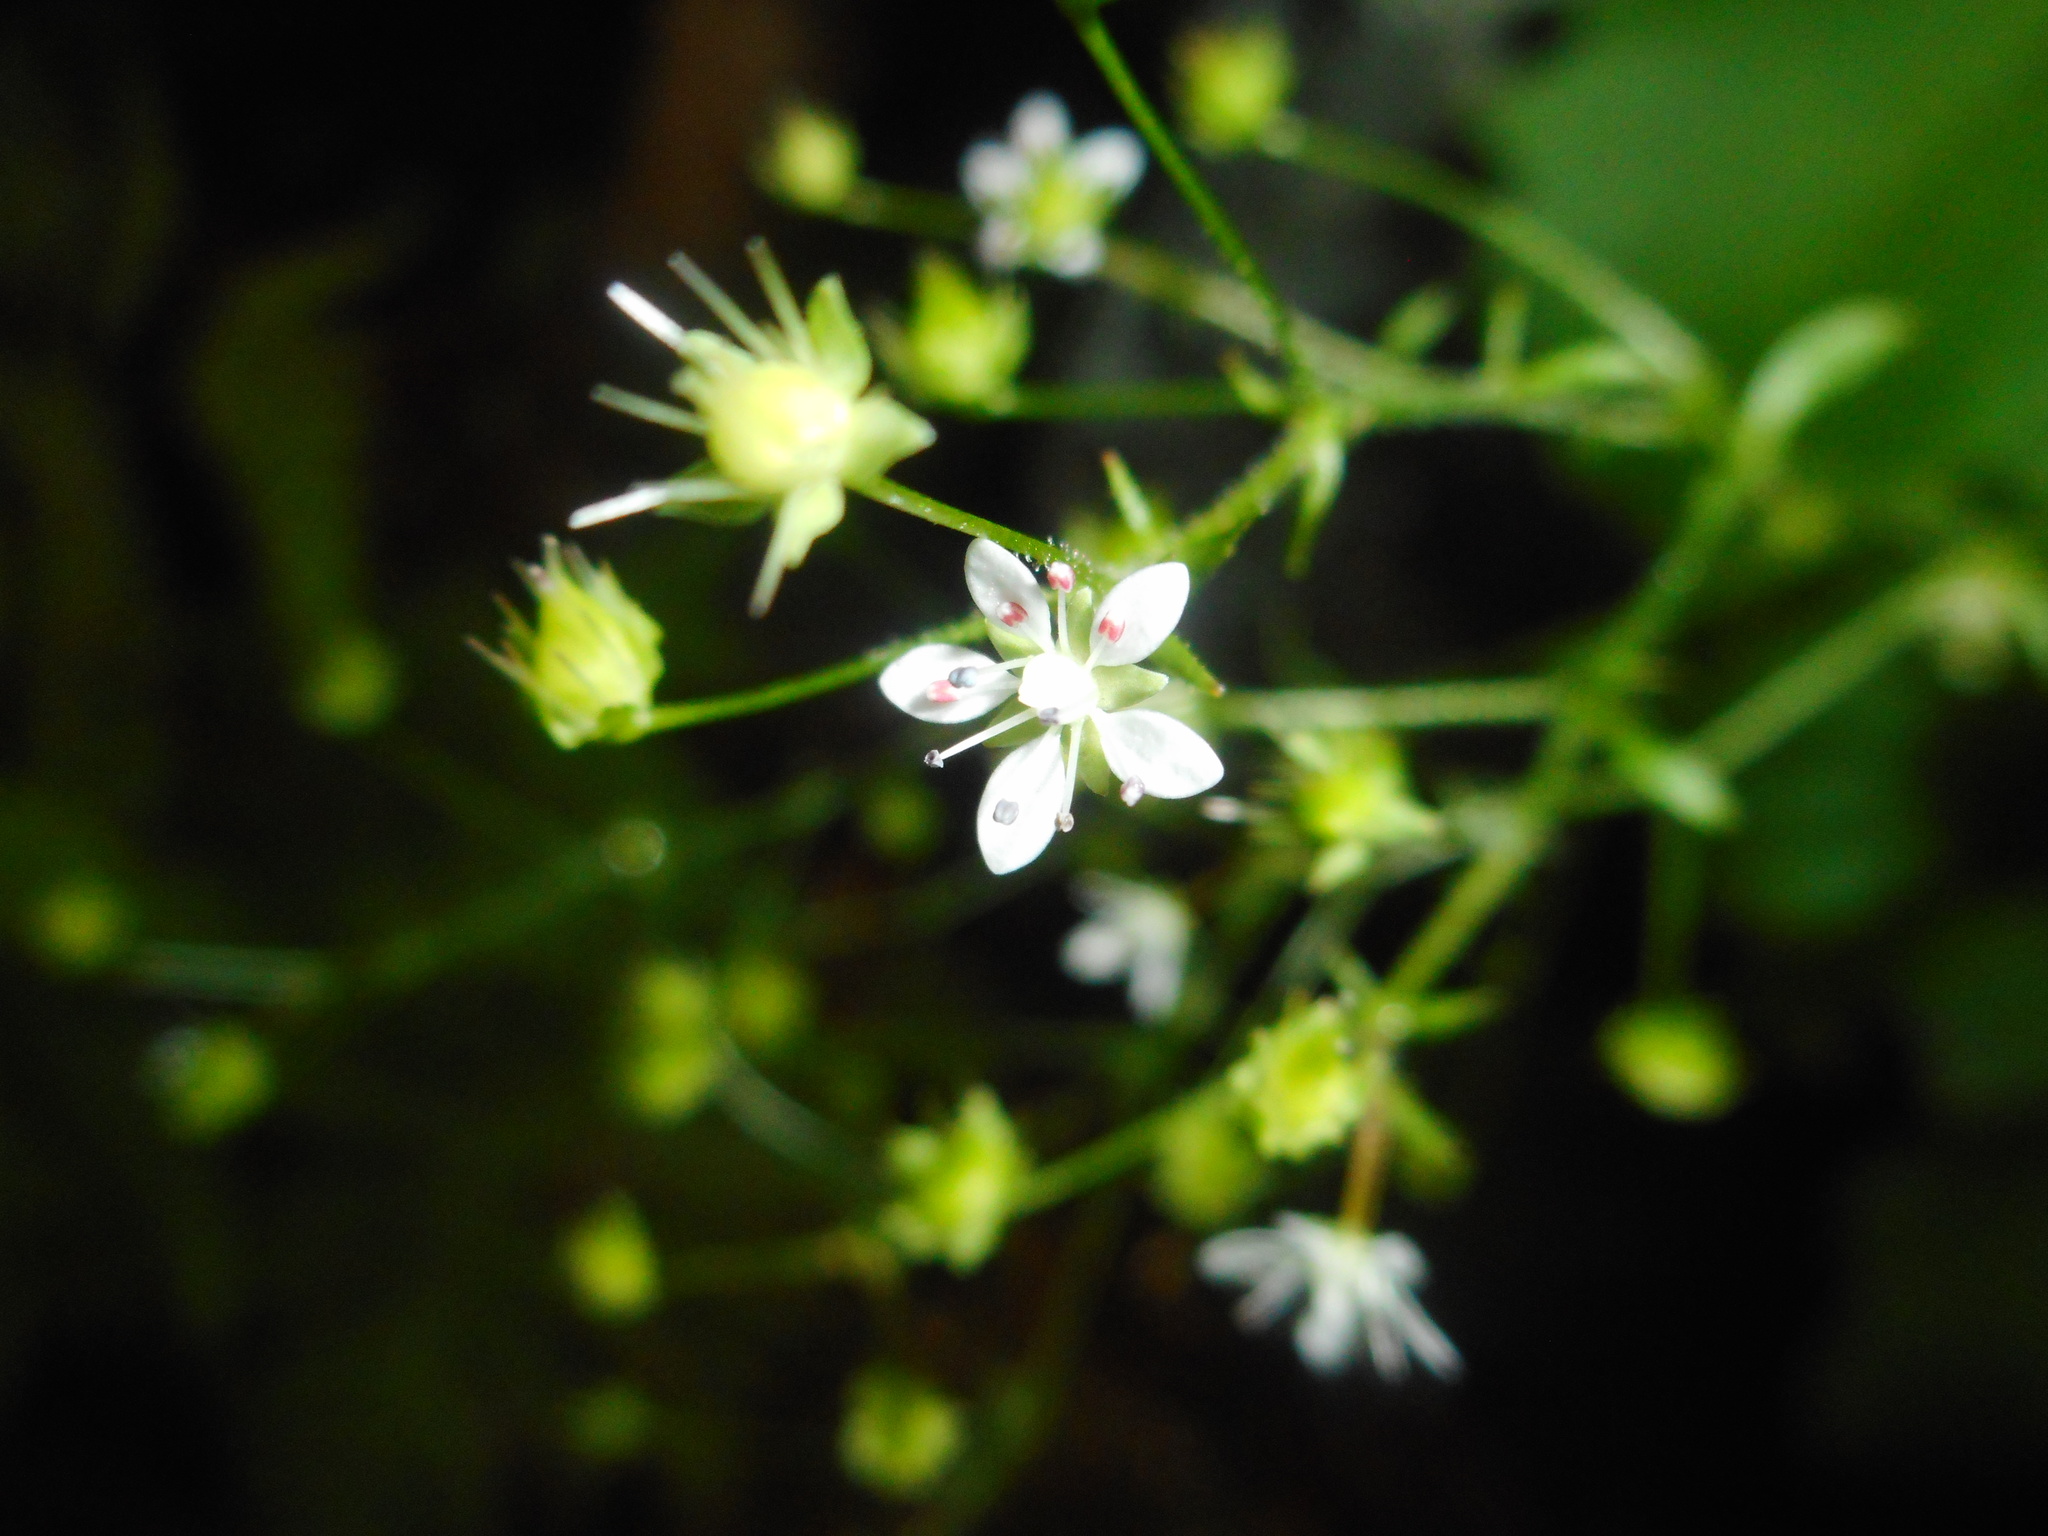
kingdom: Plantae
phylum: Tracheophyta
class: Magnoliopsida
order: Saxifragales
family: Saxifragaceae
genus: Micranthes
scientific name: Micranthes oblongifolia
